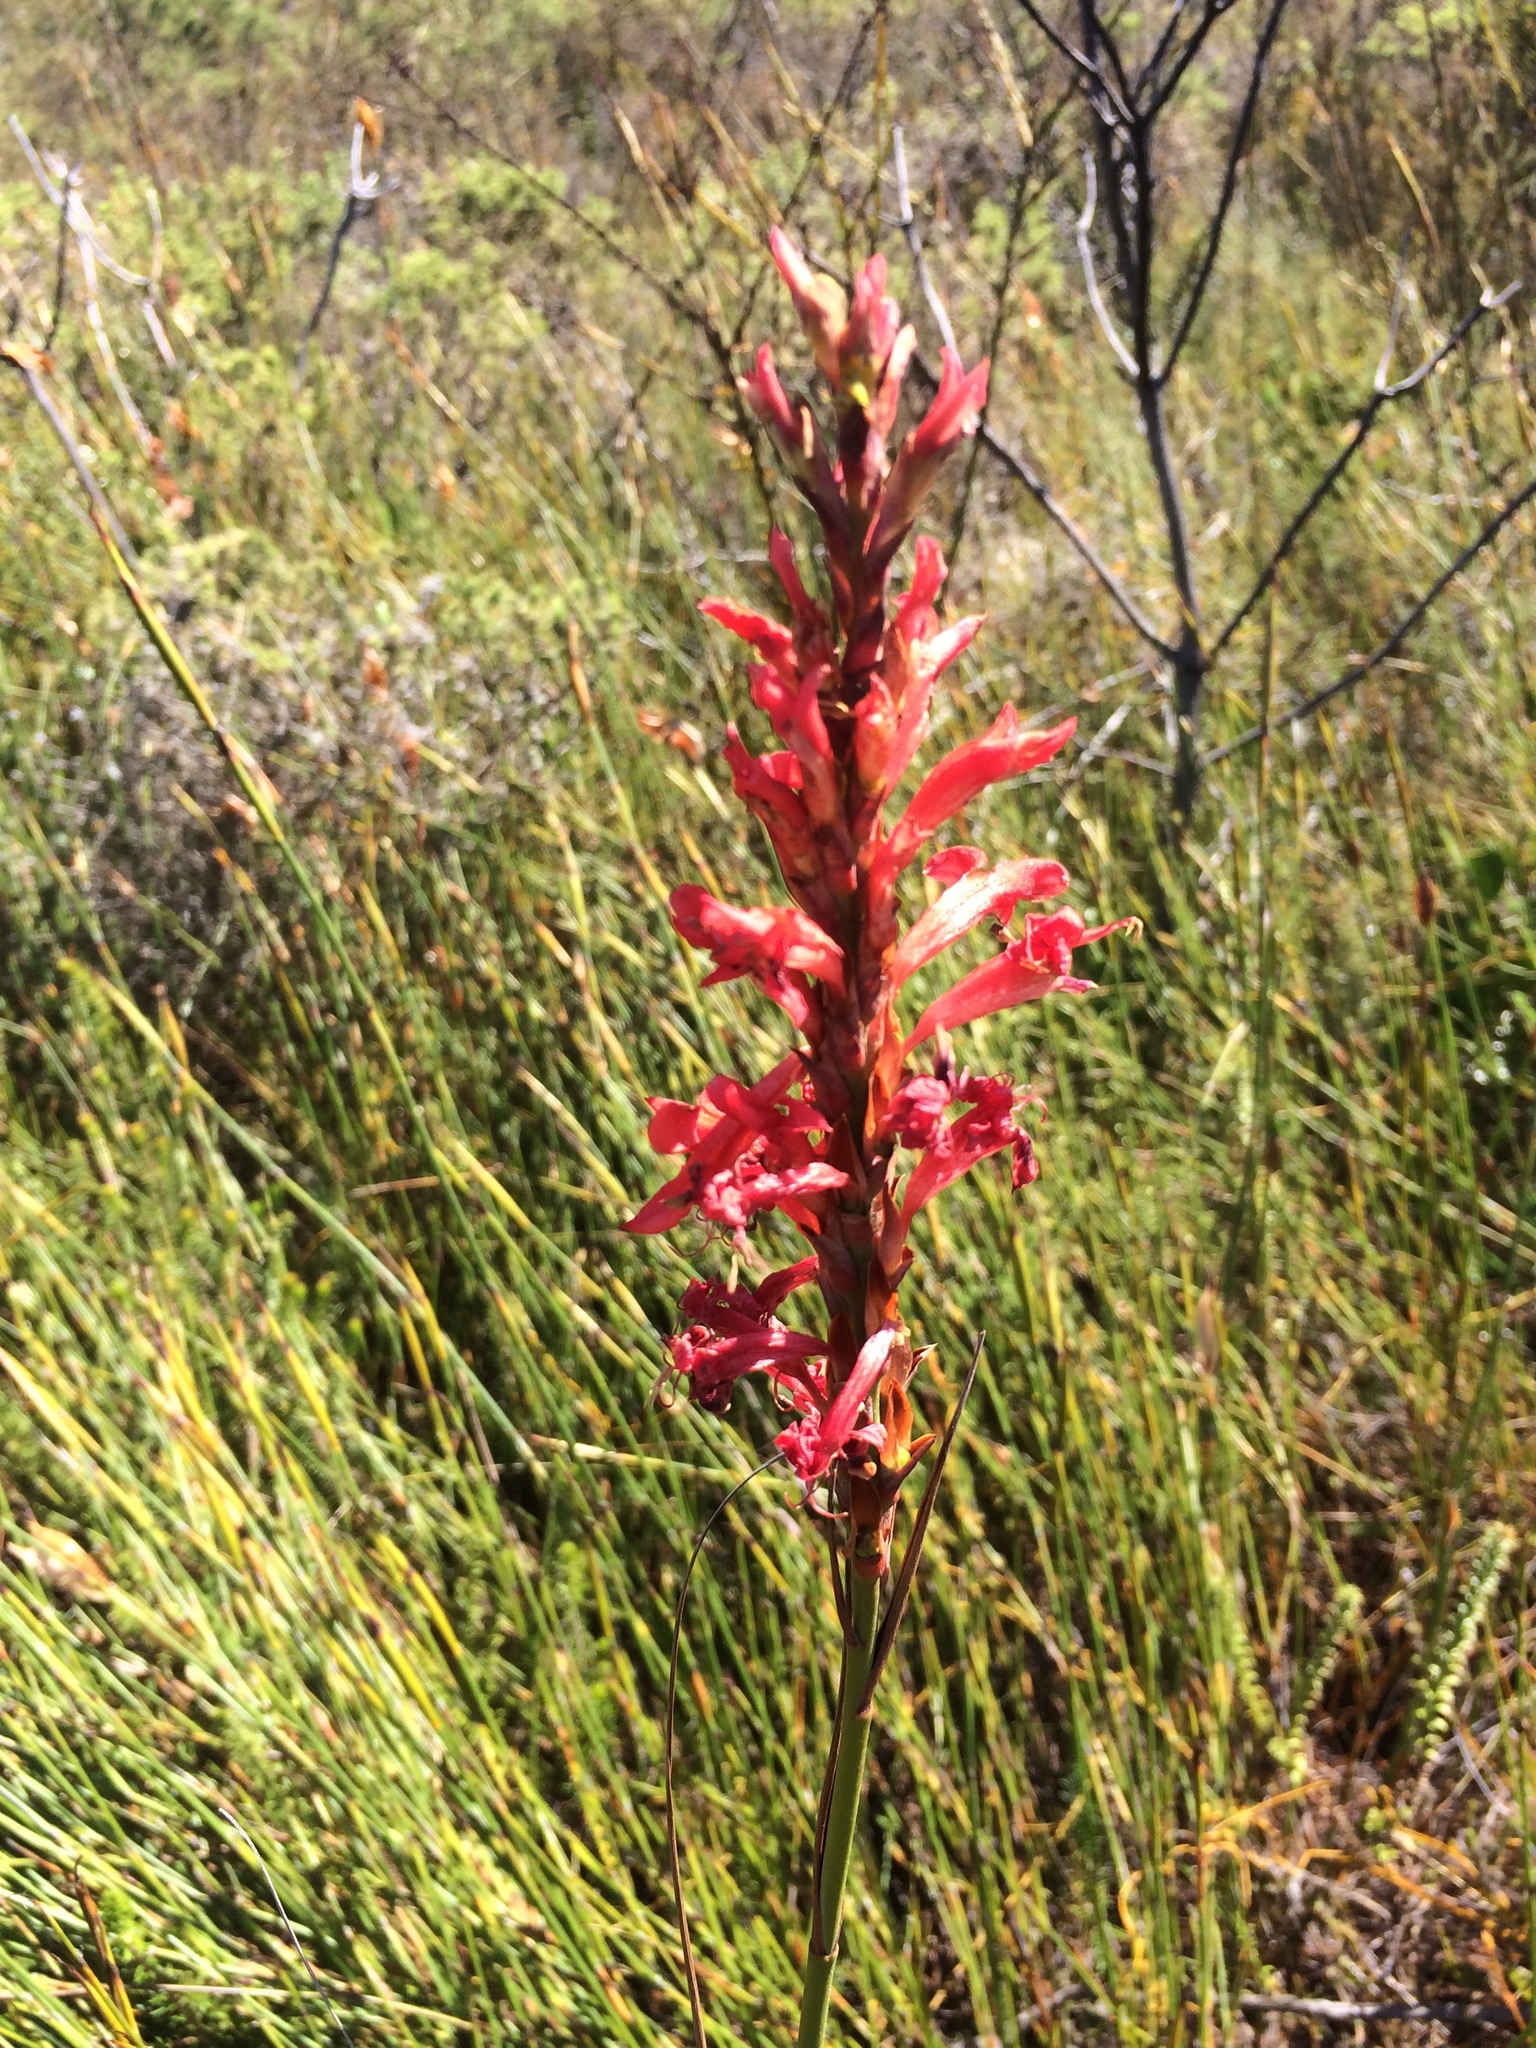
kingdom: Plantae
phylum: Tracheophyta
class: Liliopsida
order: Asparagales
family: Iridaceae
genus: Tritoniopsis
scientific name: Tritoniopsis triticea
